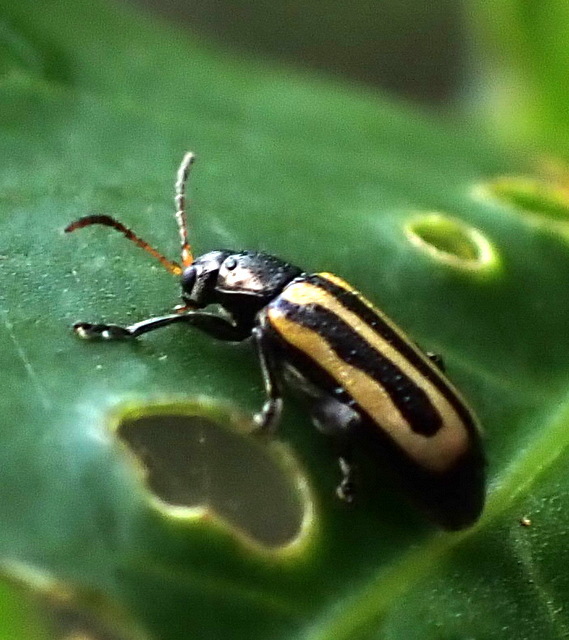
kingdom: Animalia
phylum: Arthropoda
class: Insecta
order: Coleoptera
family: Chrysomelidae
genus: Agasicles
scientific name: Agasicles hygrophila
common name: Alligatorweed flea beetle
